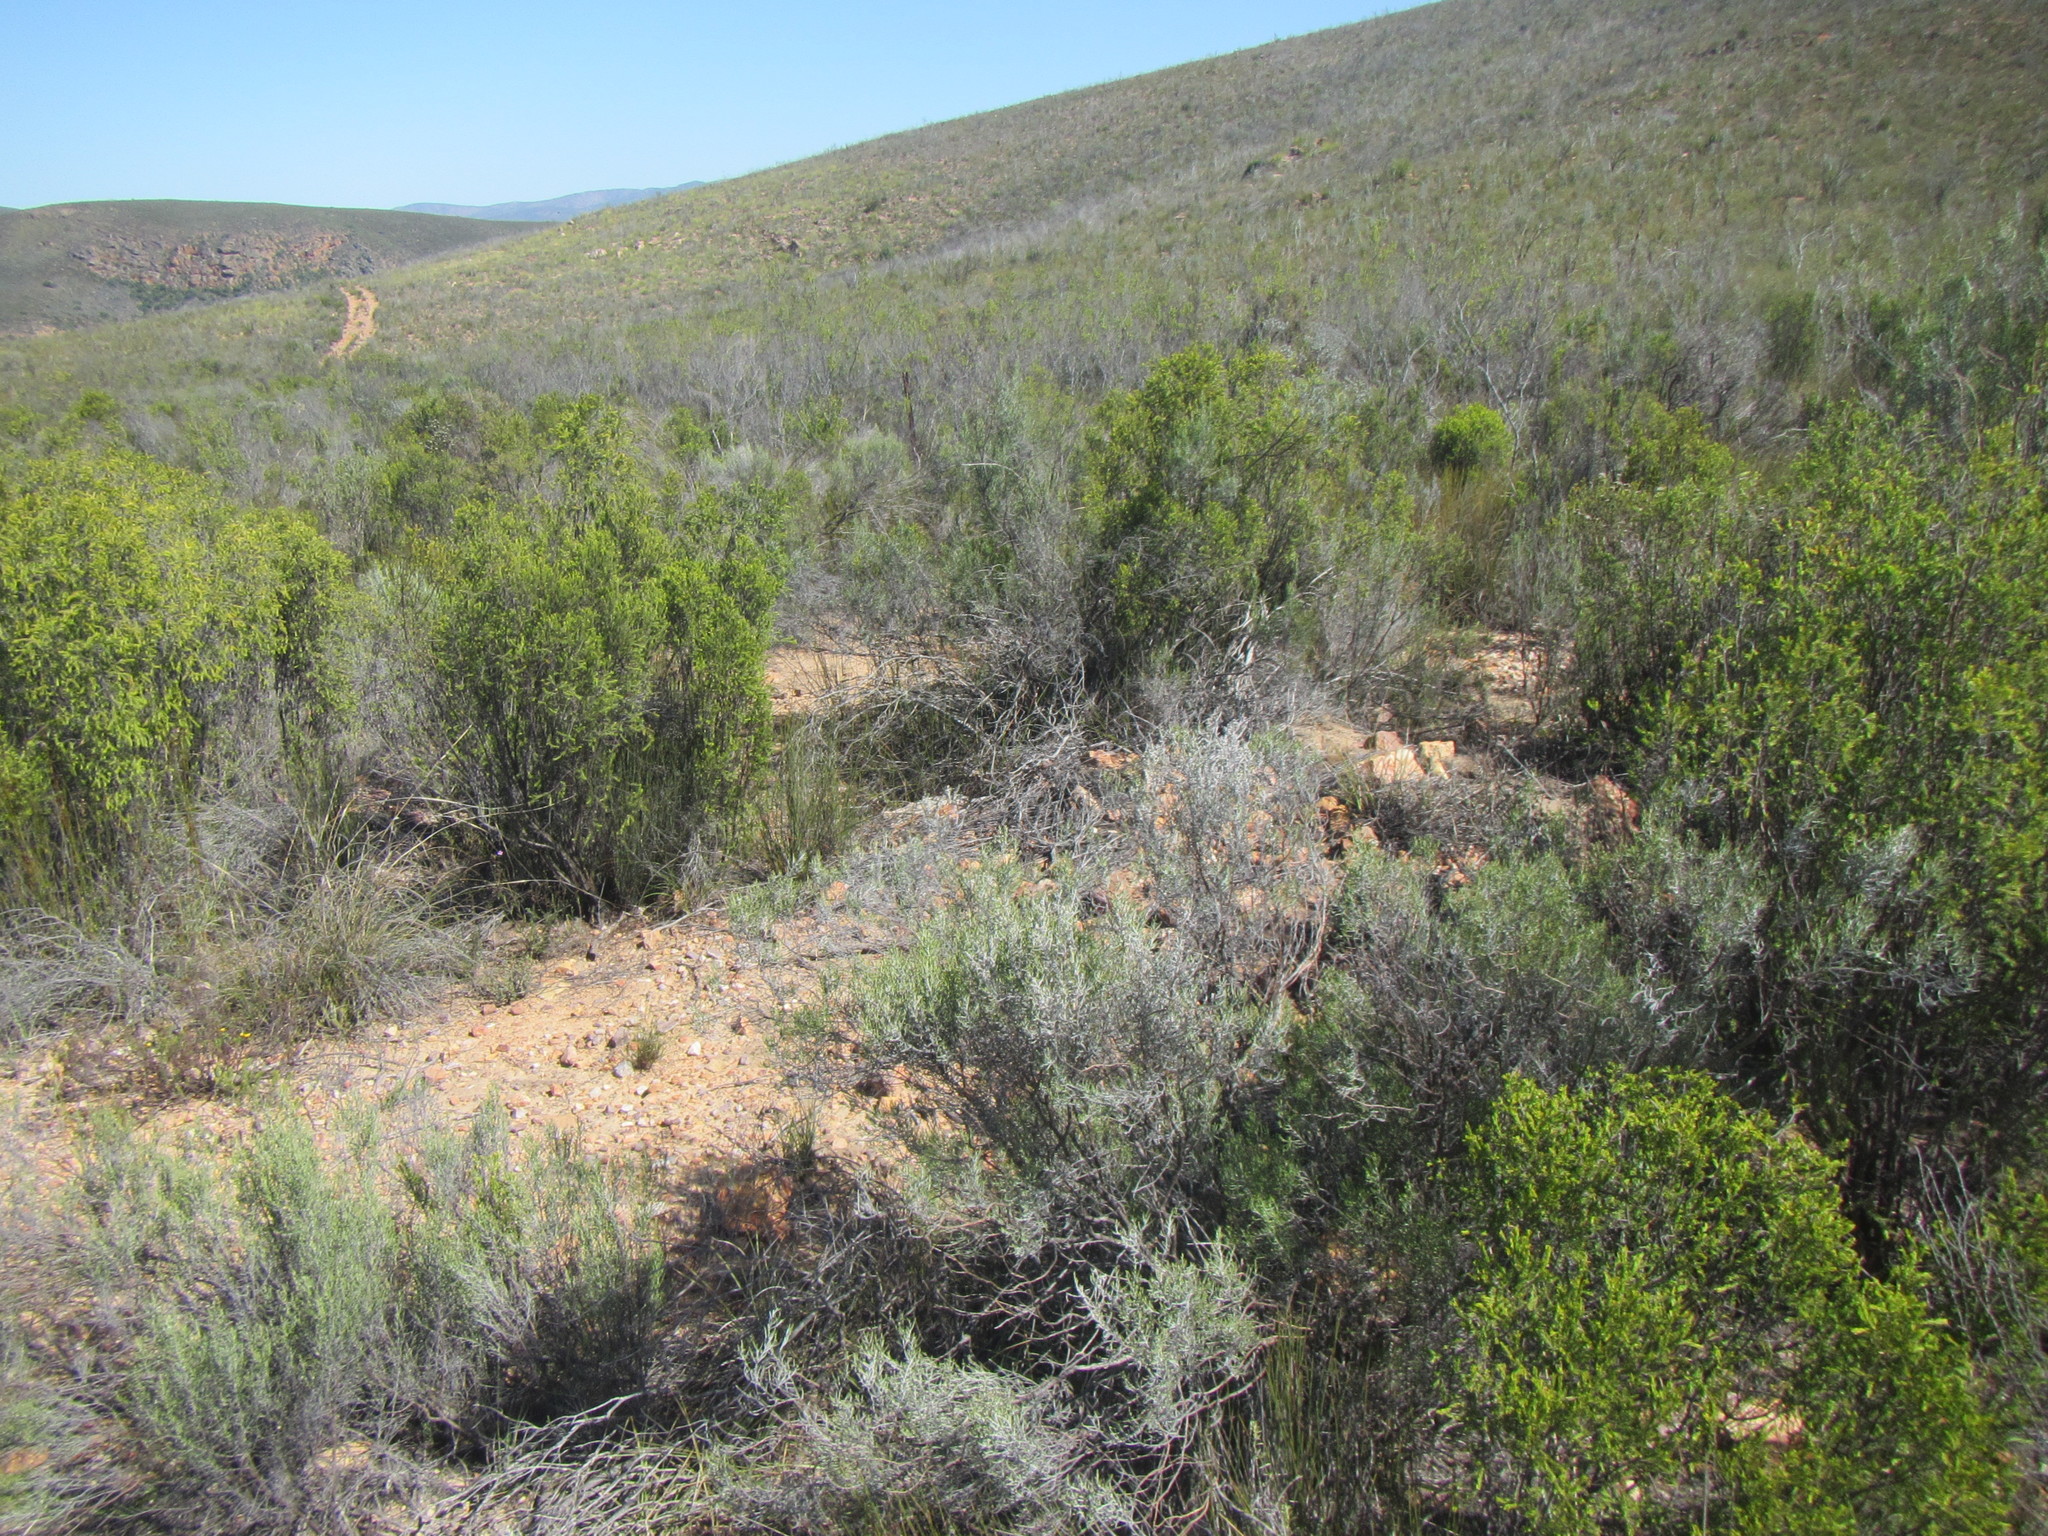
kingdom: Plantae
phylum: Tracheophyta
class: Magnoliopsida
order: Asterales
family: Asteraceae
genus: Dicerothamnus
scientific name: Dicerothamnus rhinocerotis
